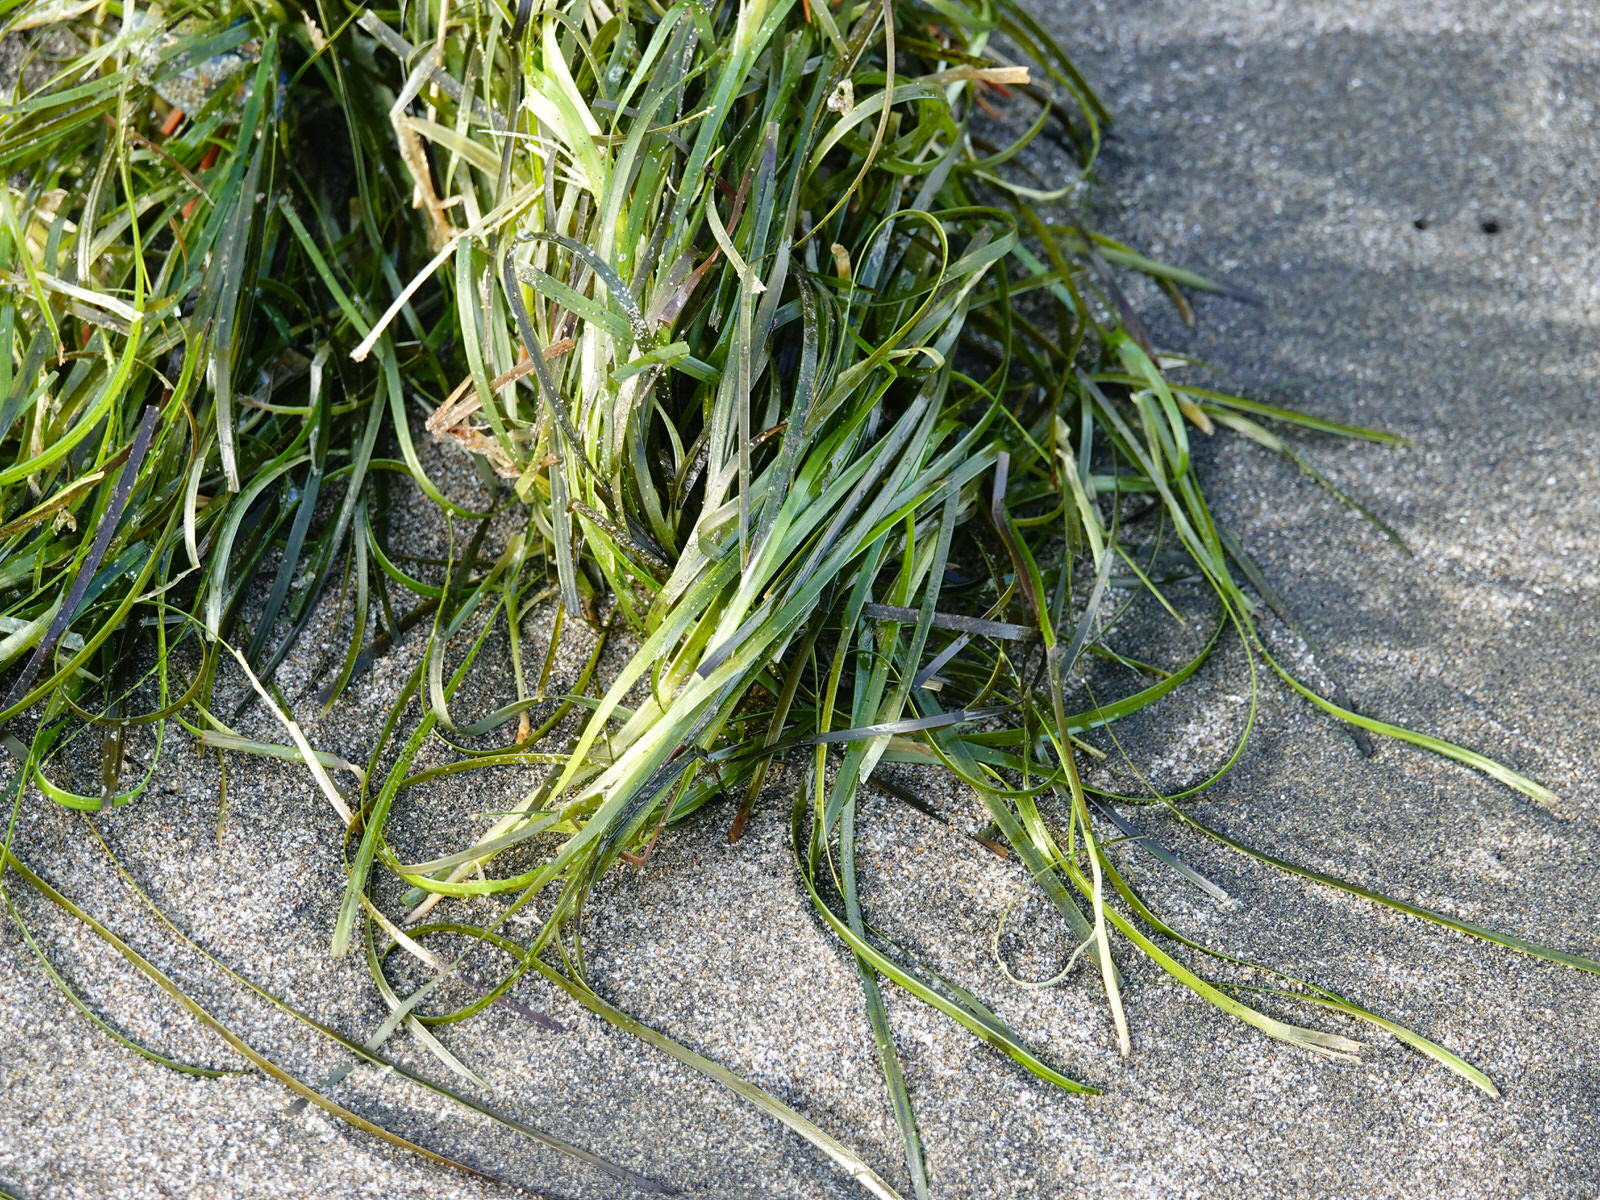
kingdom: Plantae
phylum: Tracheophyta
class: Liliopsida
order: Alismatales
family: Zosteraceae
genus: Zostera
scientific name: Zostera novazelandica
